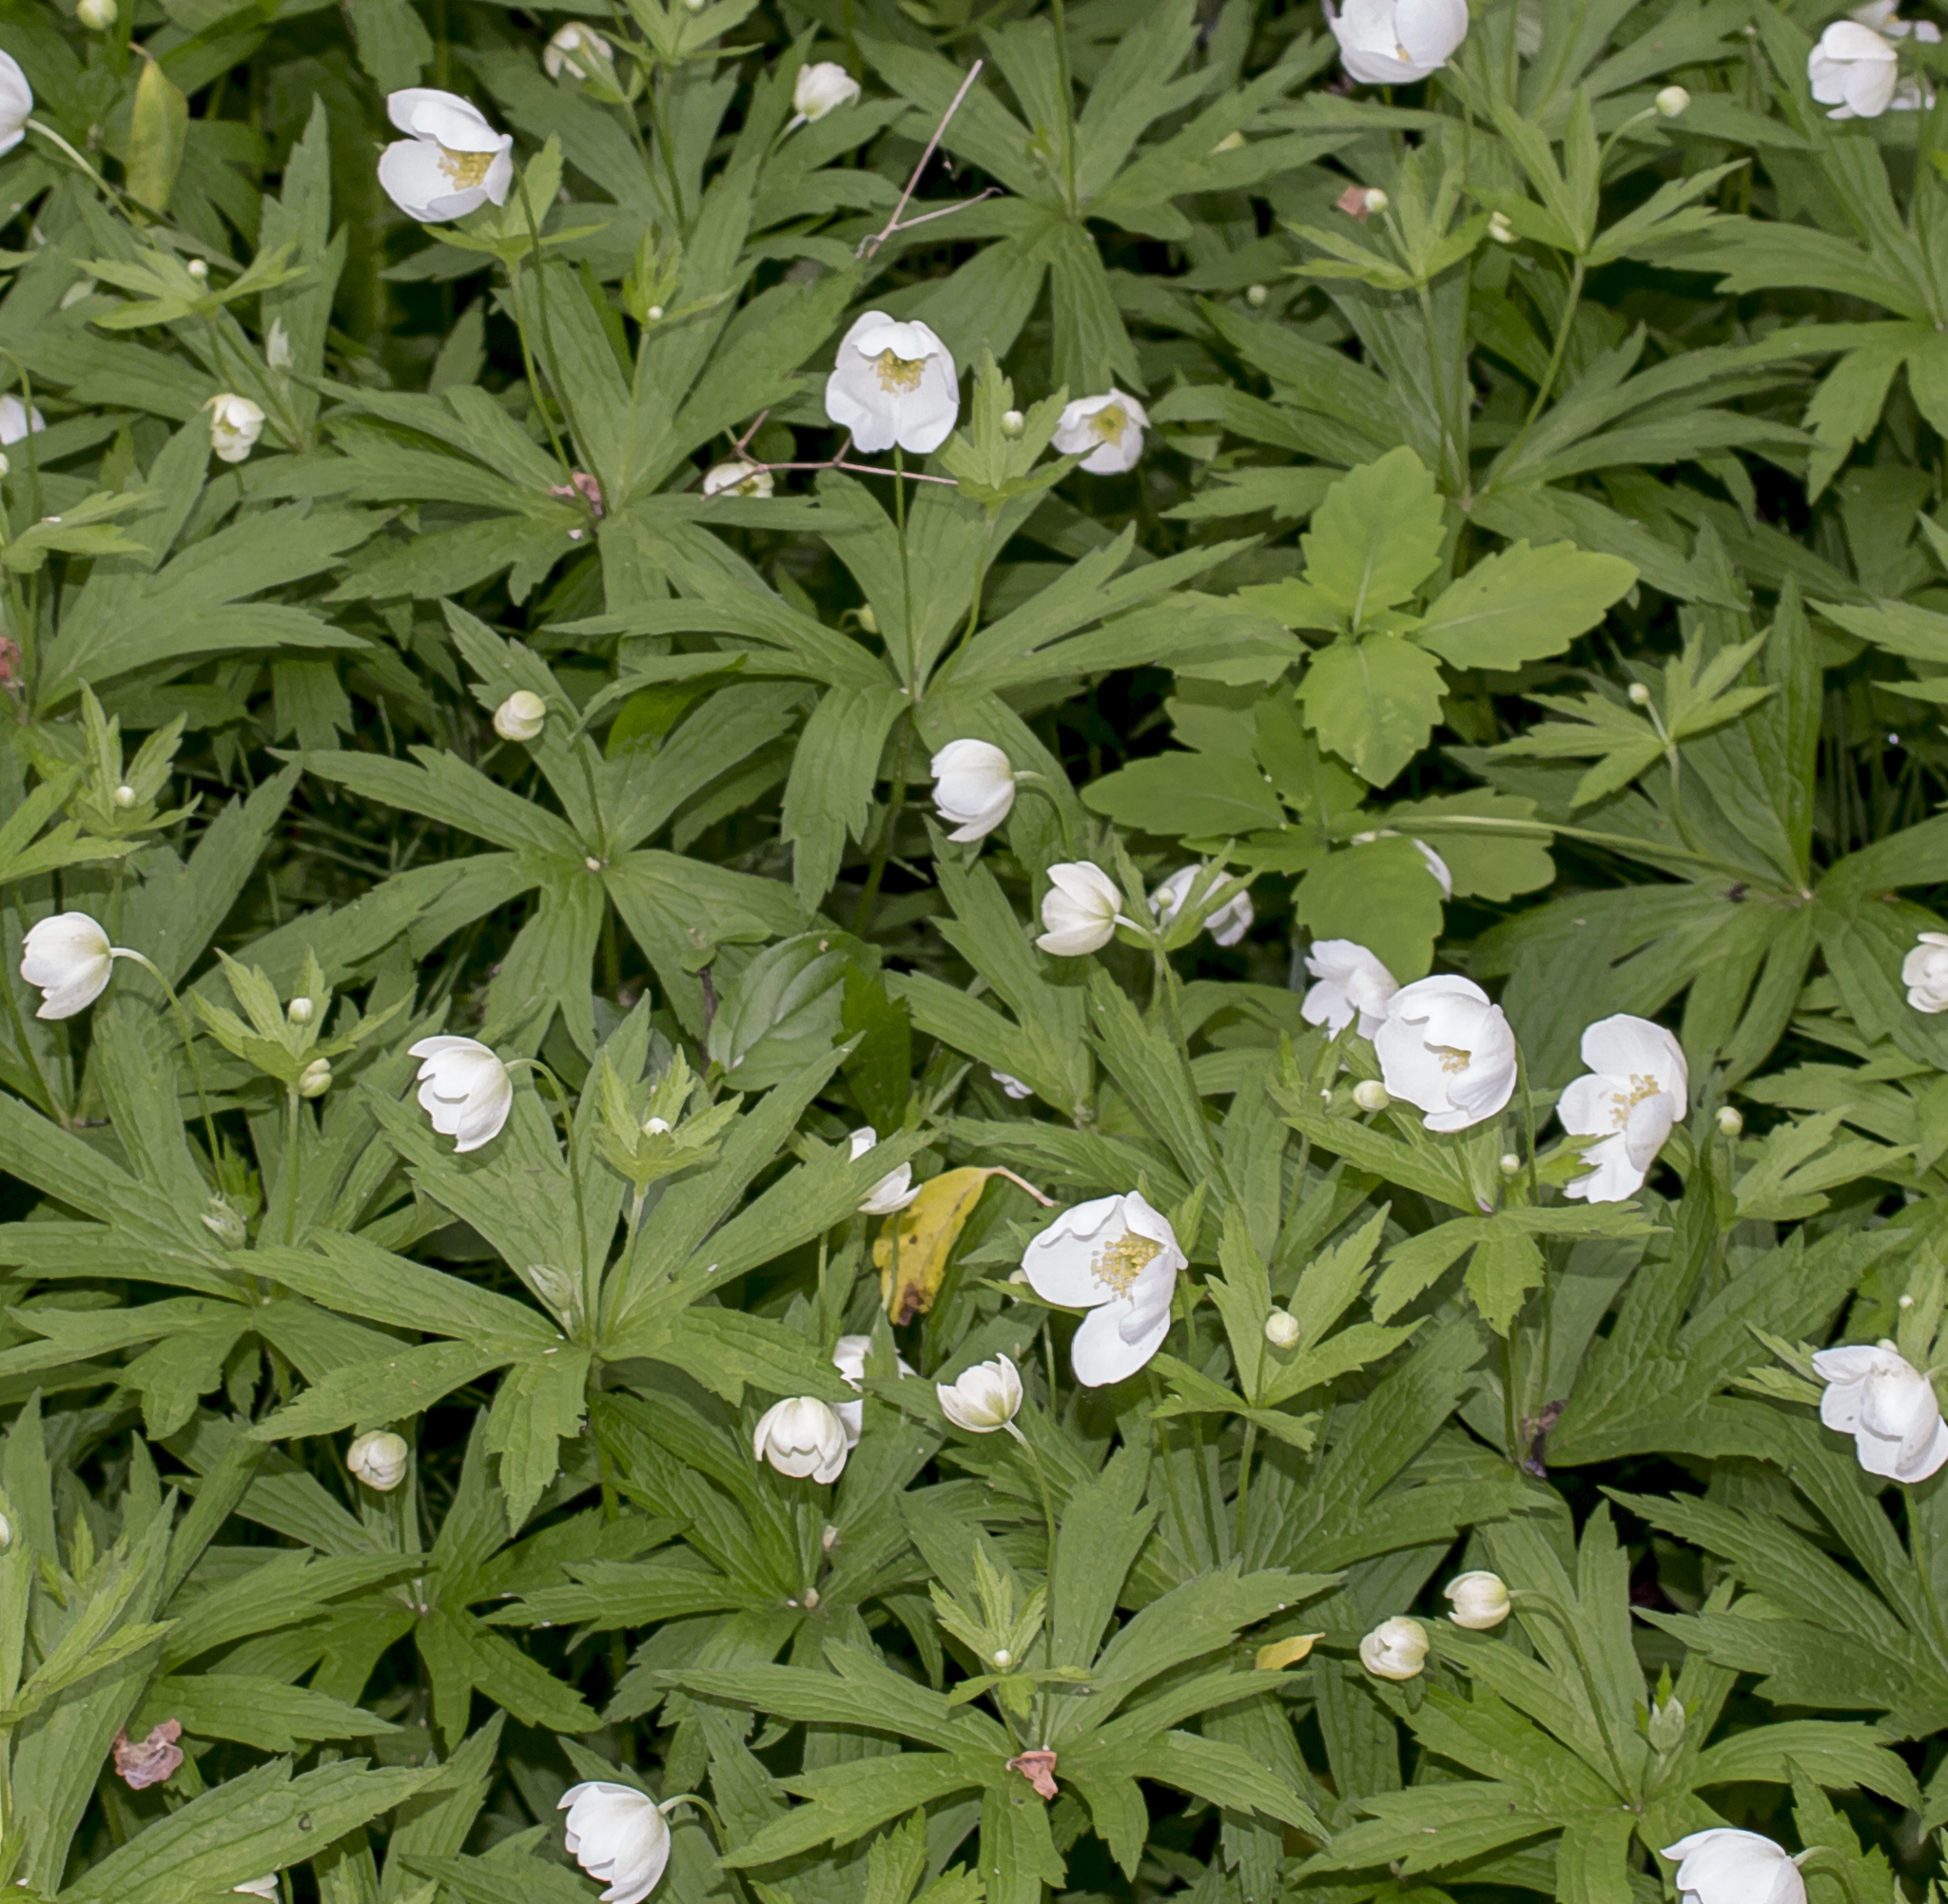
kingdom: Plantae
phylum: Tracheophyta
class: Magnoliopsida
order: Ranunculales
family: Ranunculaceae
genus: Anemonastrum
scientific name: Anemonastrum canadense
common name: Canada anemone
